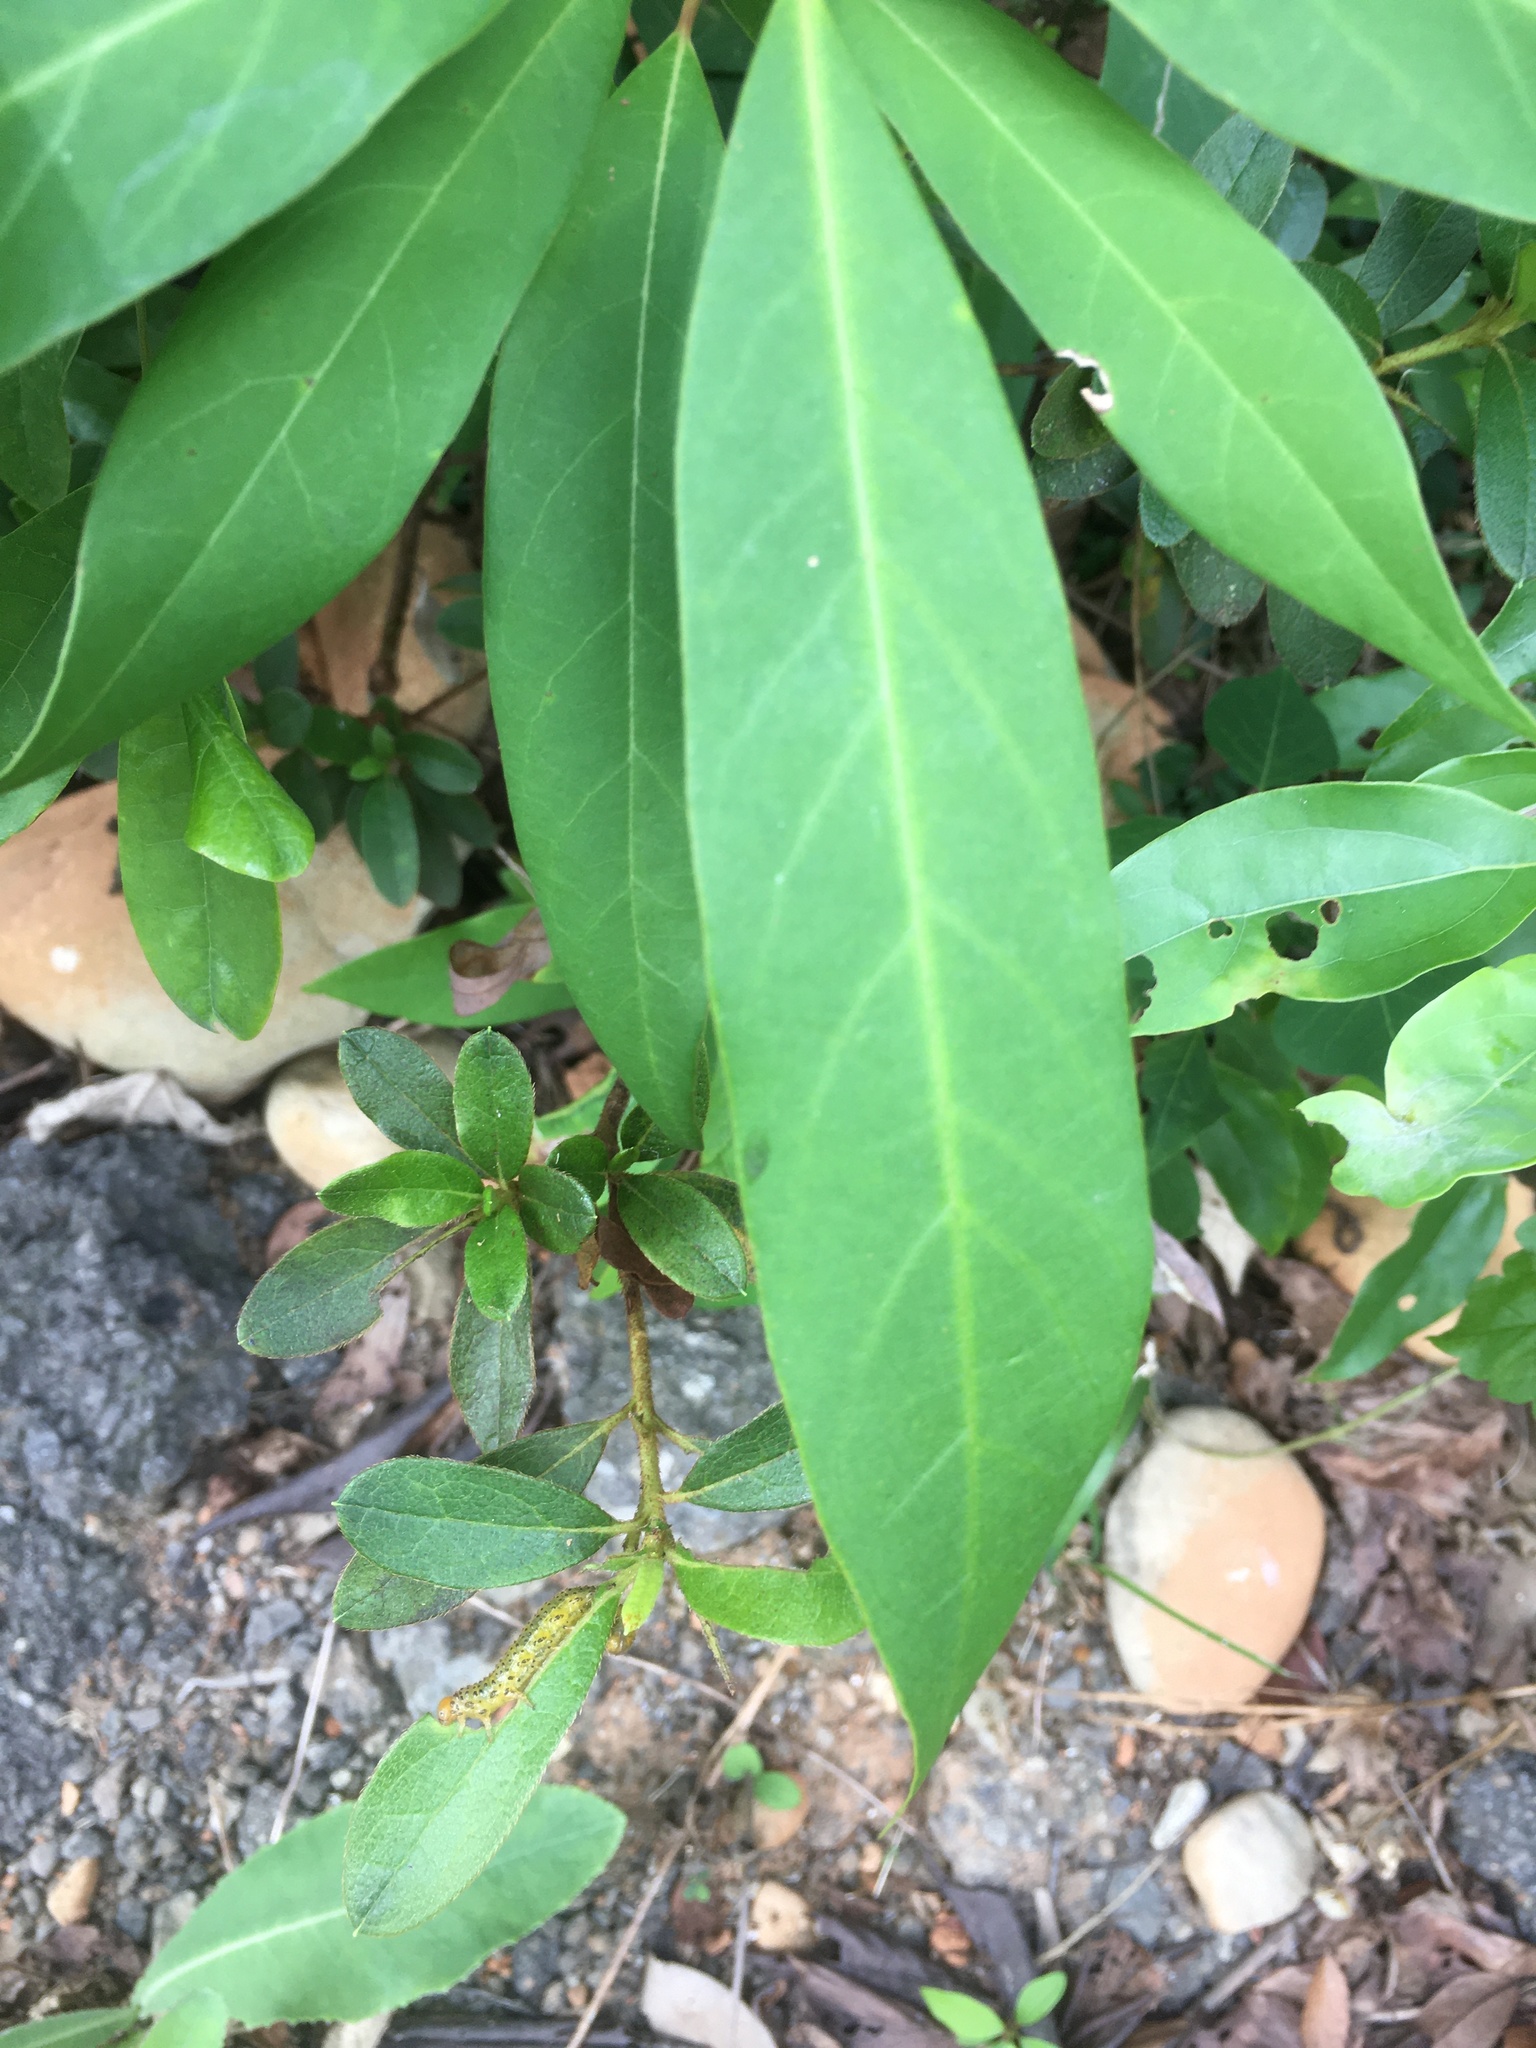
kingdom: Plantae
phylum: Tracheophyta
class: Magnoliopsida
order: Laurales
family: Lauraceae
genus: Machilus
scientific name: Machilus zuihoensis
